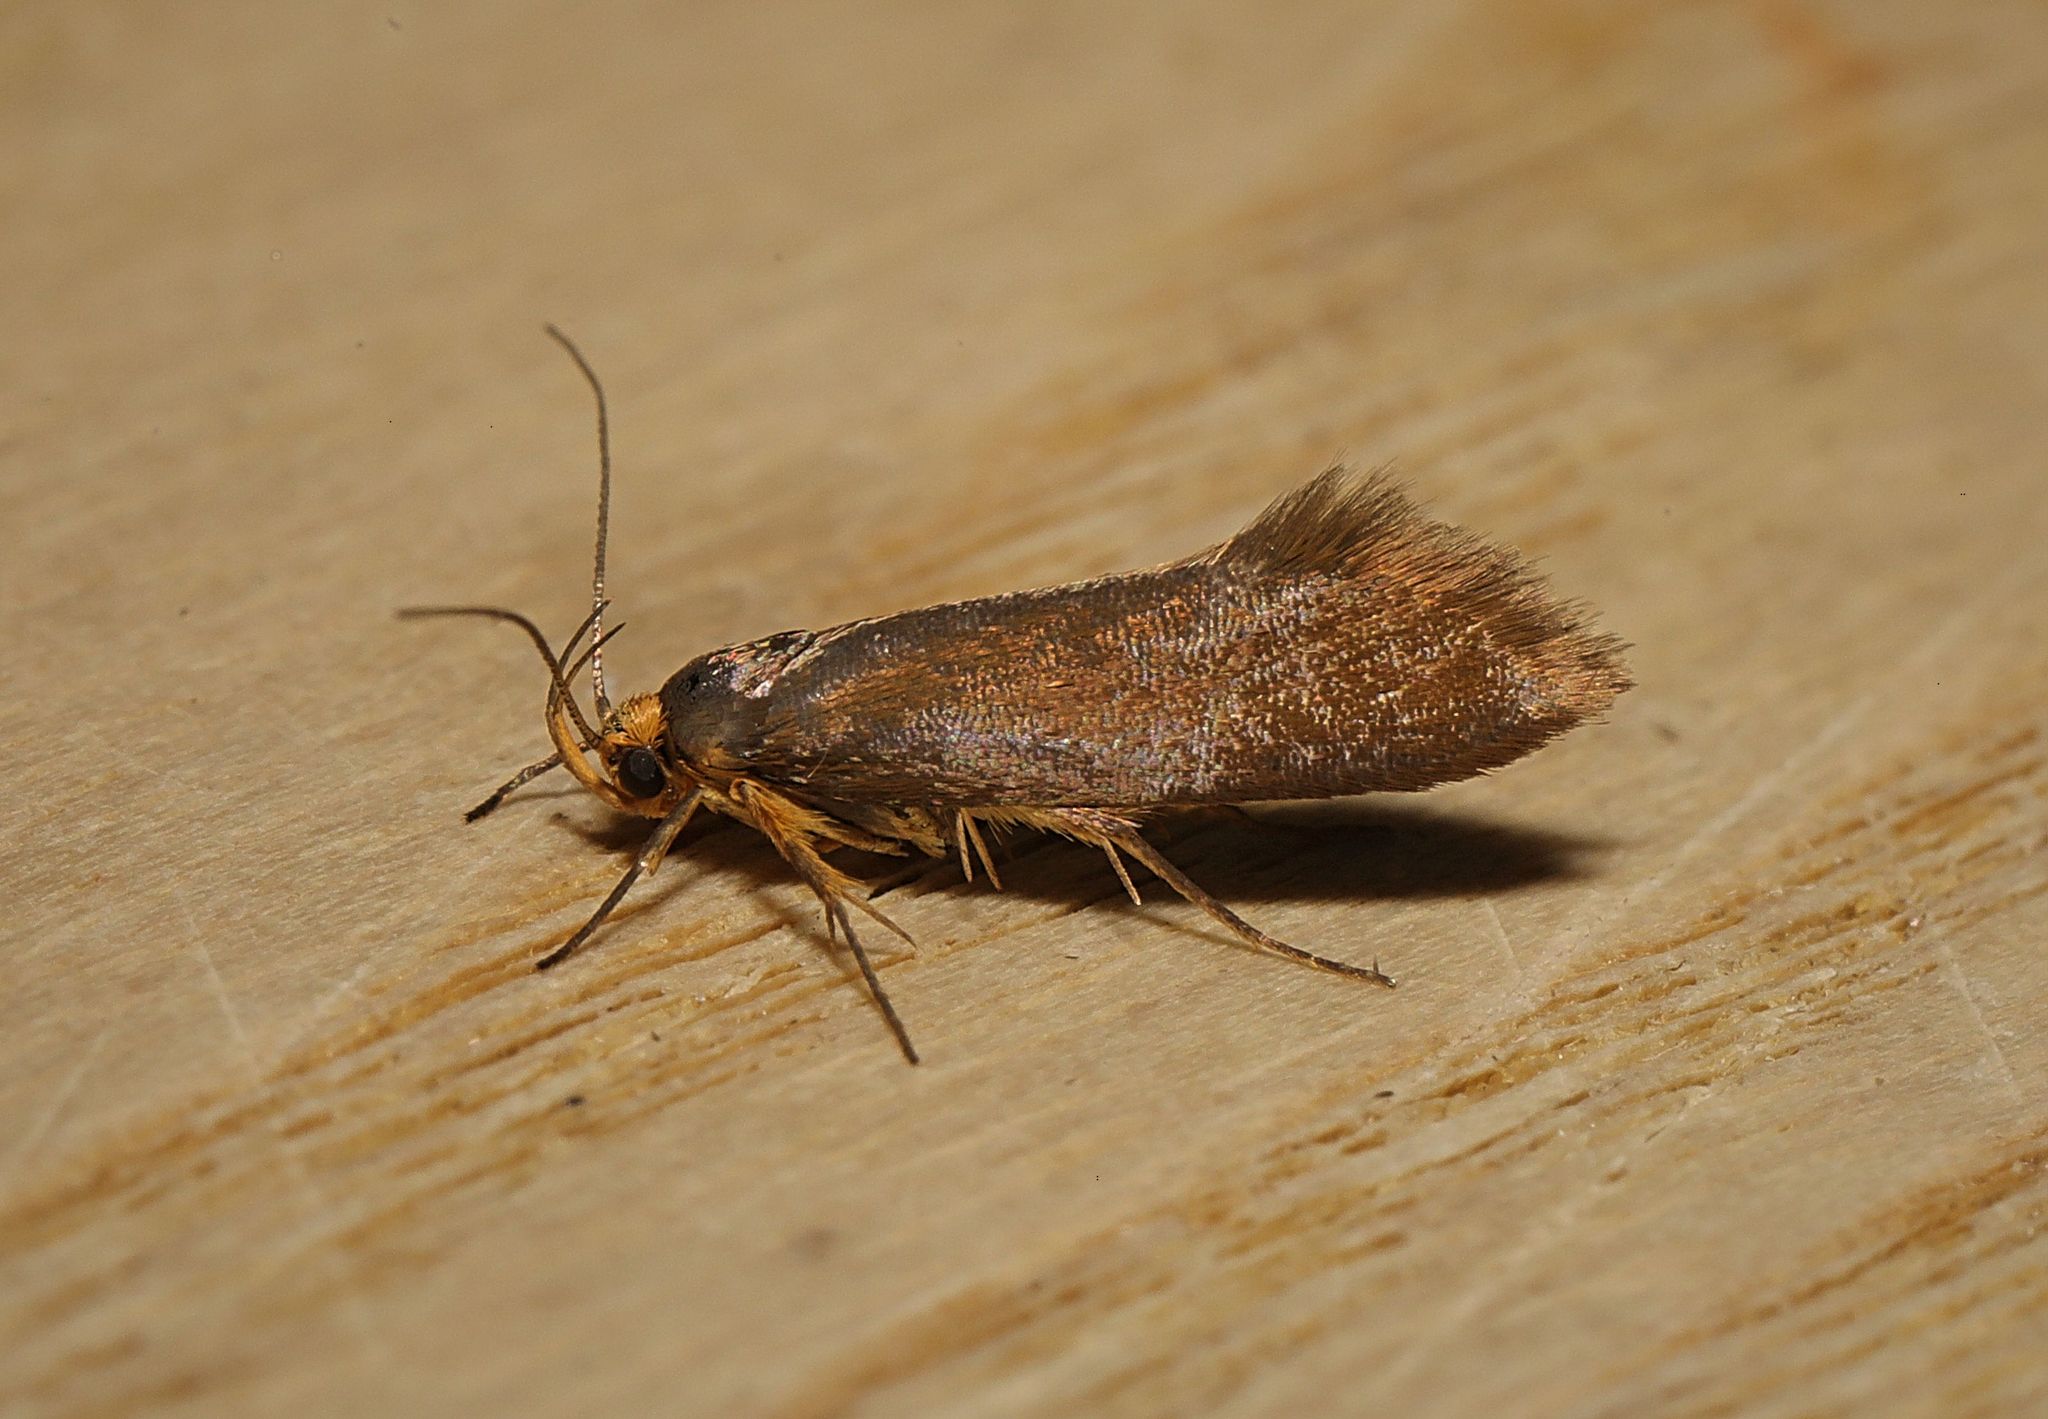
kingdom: Animalia
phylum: Arthropoda
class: Insecta
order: Lepidoptera
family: Oecophoridae
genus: Borkhausenia
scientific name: Borkhausenia Crassa unitella
